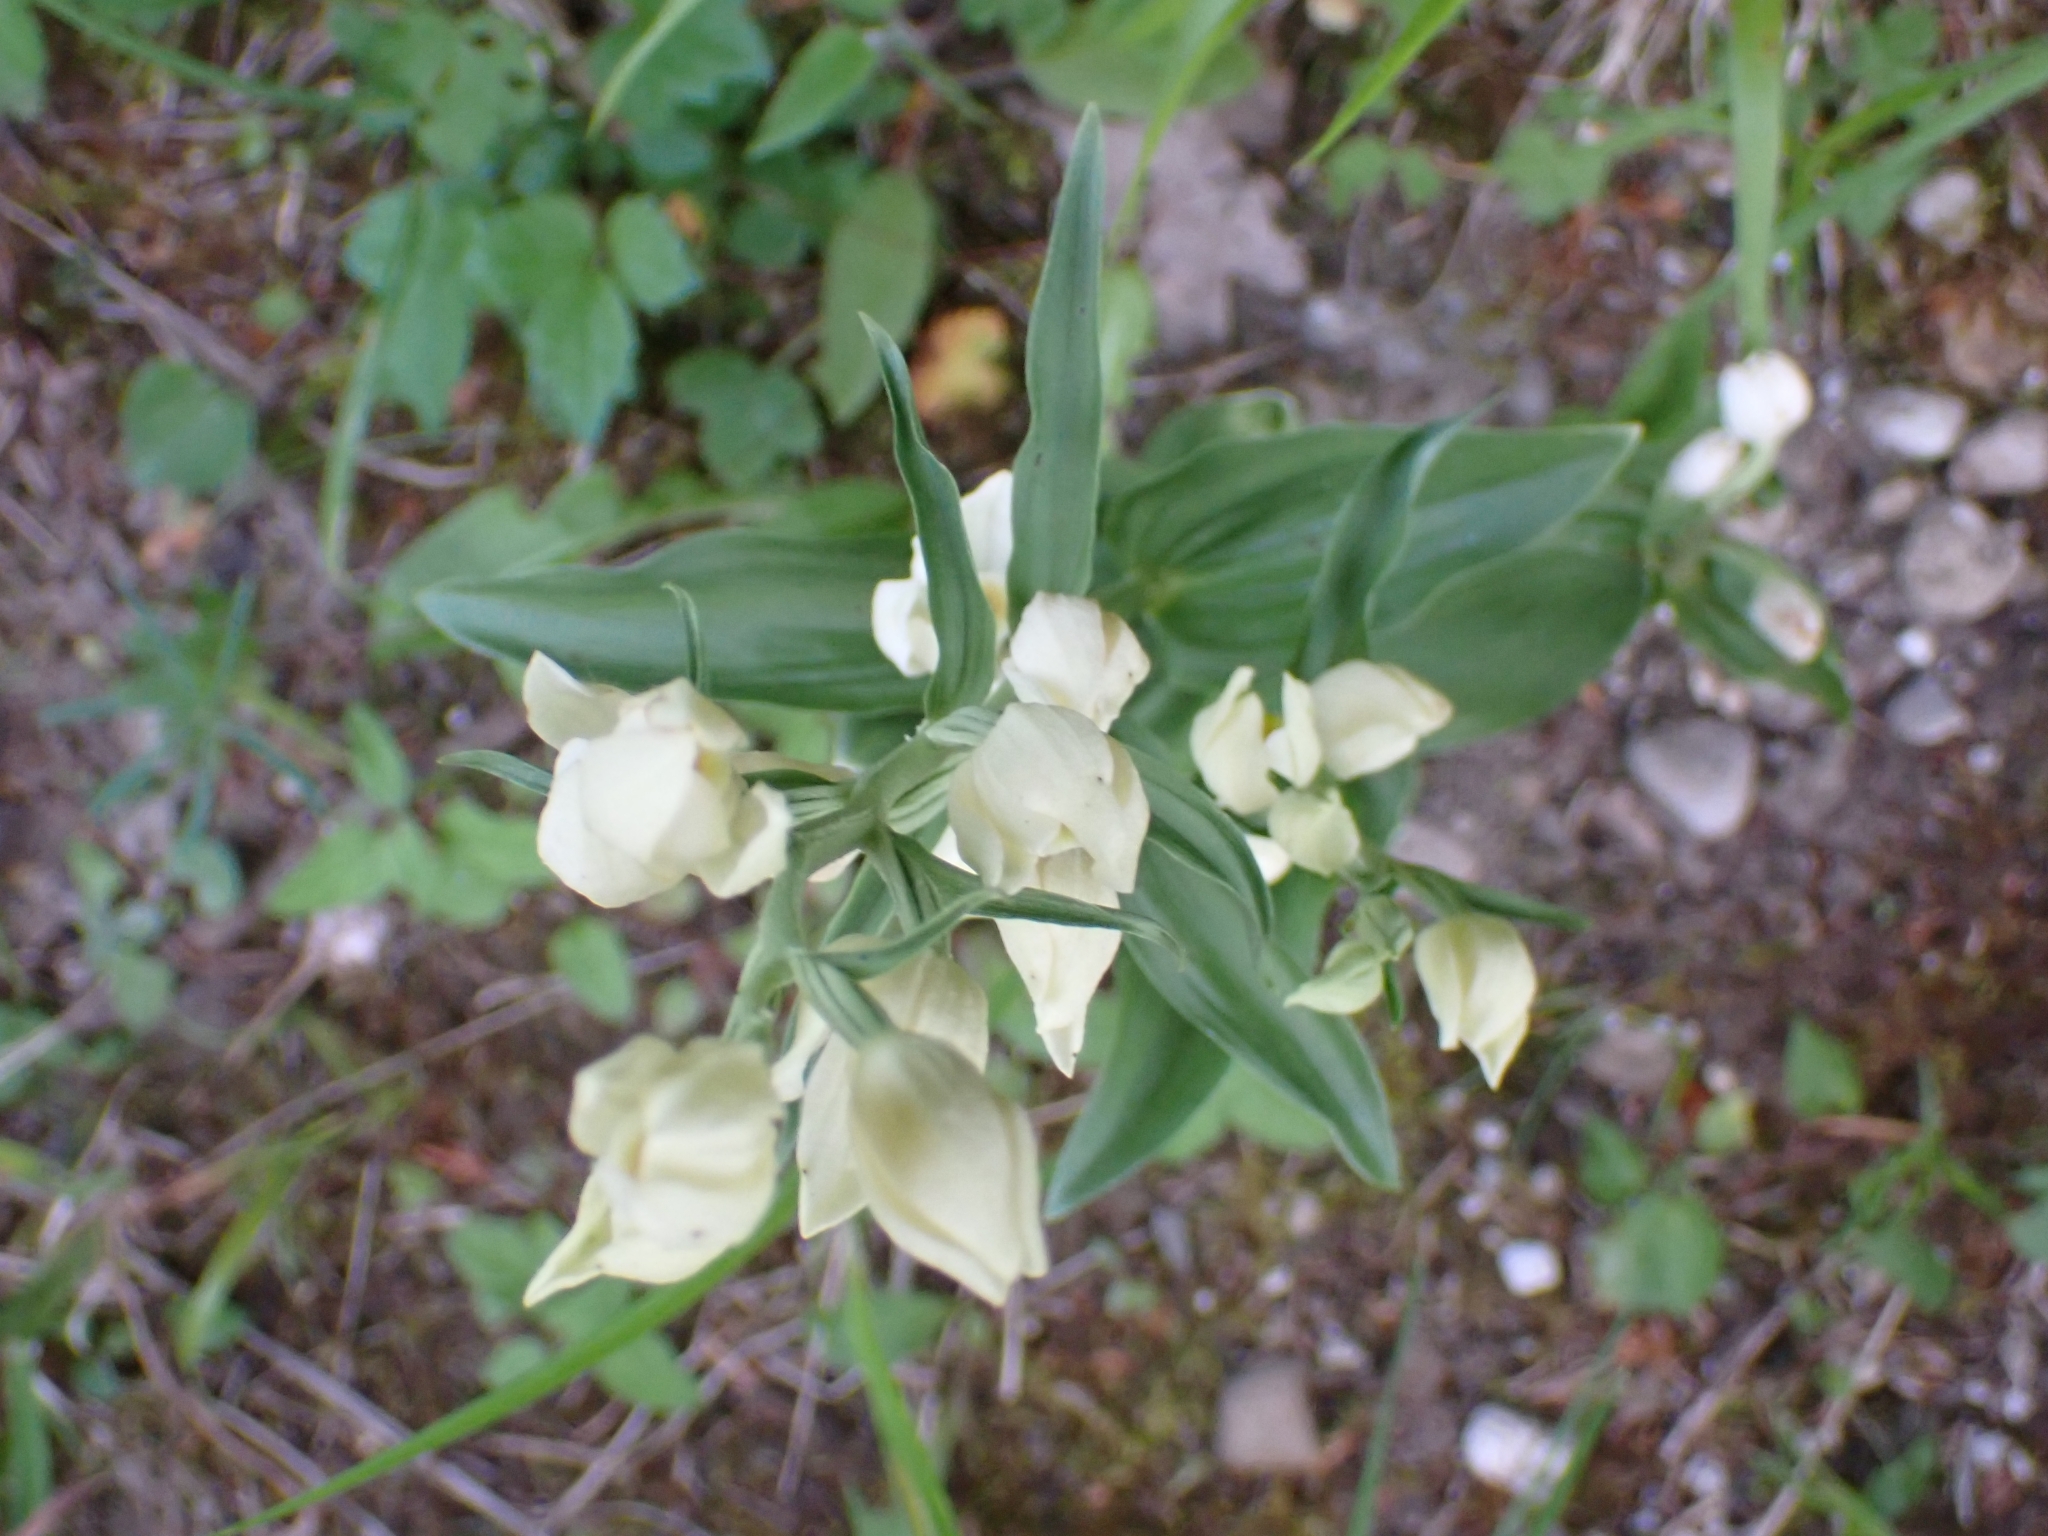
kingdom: Plantae
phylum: Tracheophyta
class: Liliopsida
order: Asparagales
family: Orchidaceae
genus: Cephalanthera
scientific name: Cephalanthera damasonium
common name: White helleborine
